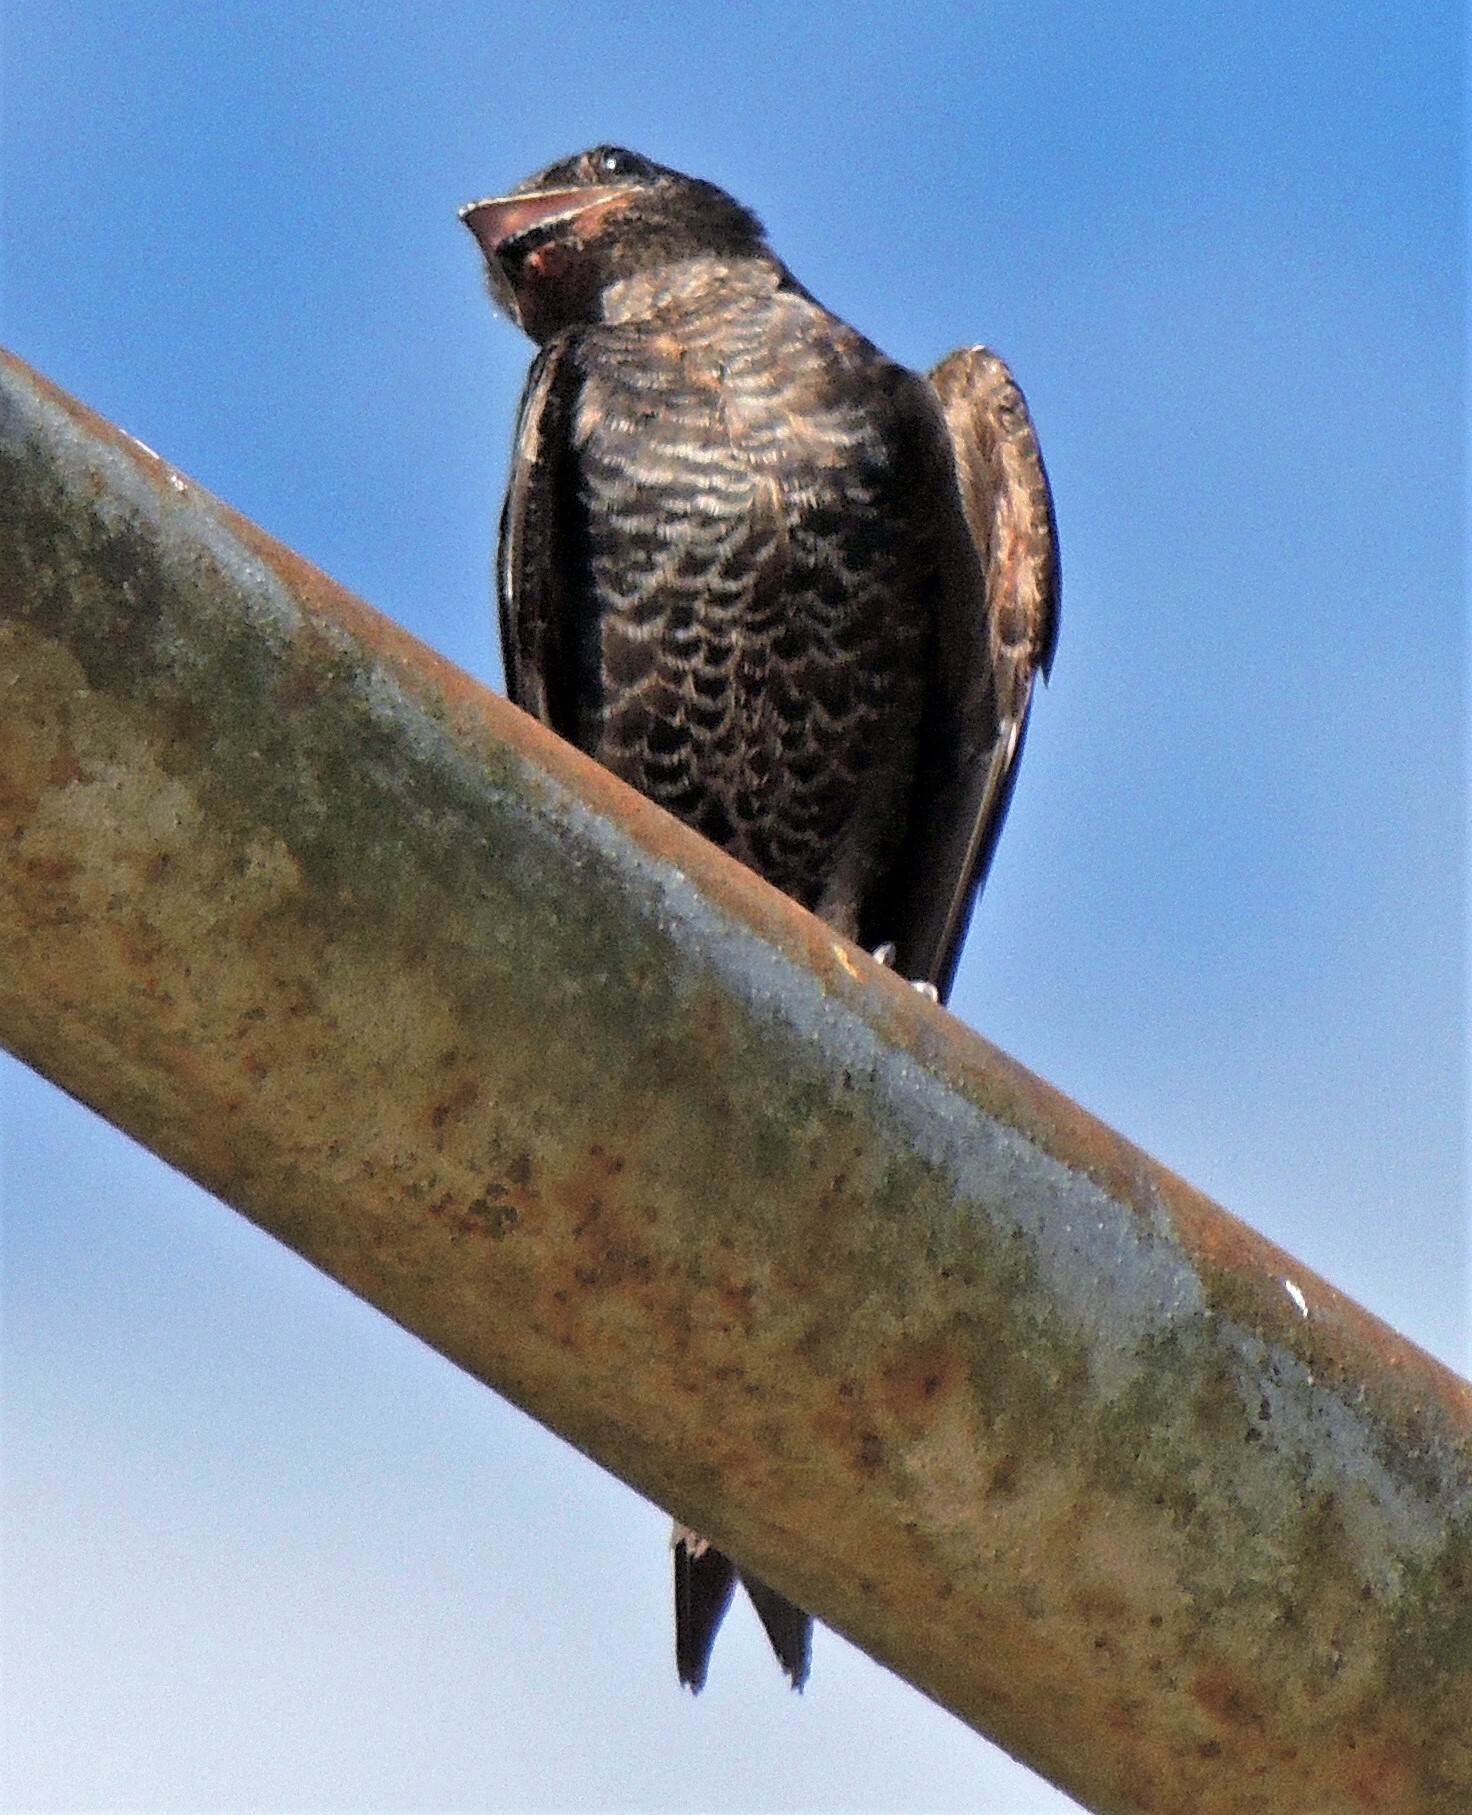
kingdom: Animalia
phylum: Chordata
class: Aves
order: Passeriformes
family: Hirundinidae
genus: Progne
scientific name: Progne elegans
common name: Southern martin
